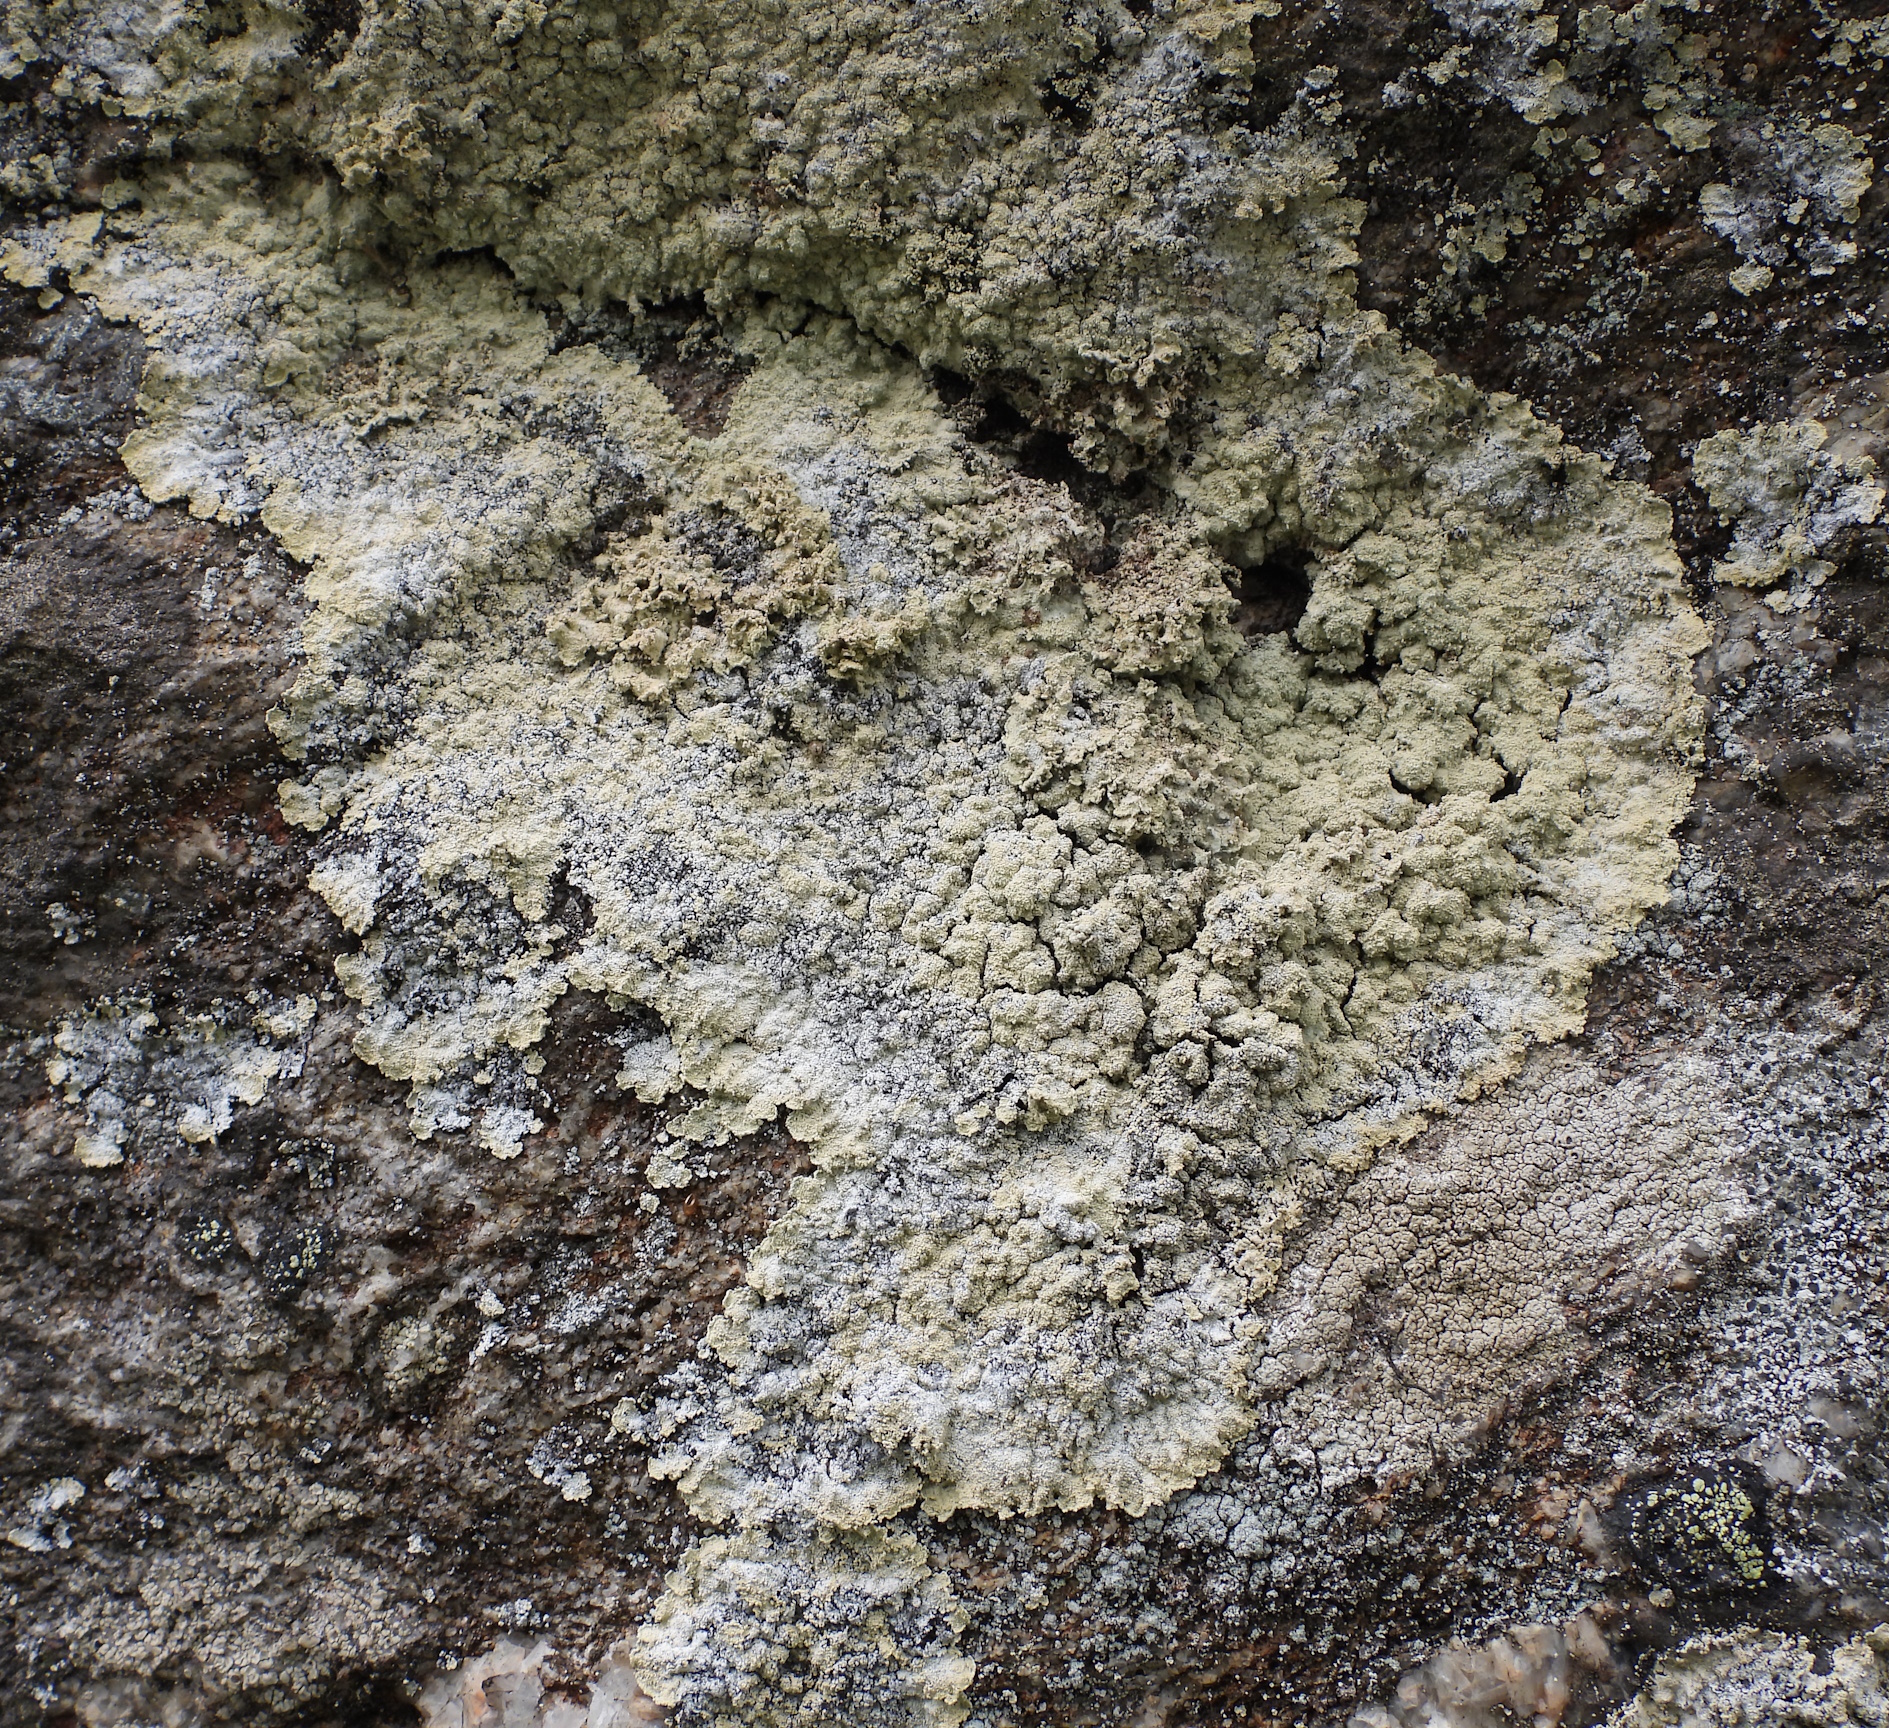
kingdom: Fungi
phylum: Ascomycota
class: Lecanoromycetes
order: Lecanorales
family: Stereocaulaceae
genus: Lepraria
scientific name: Lepraria membranacea
